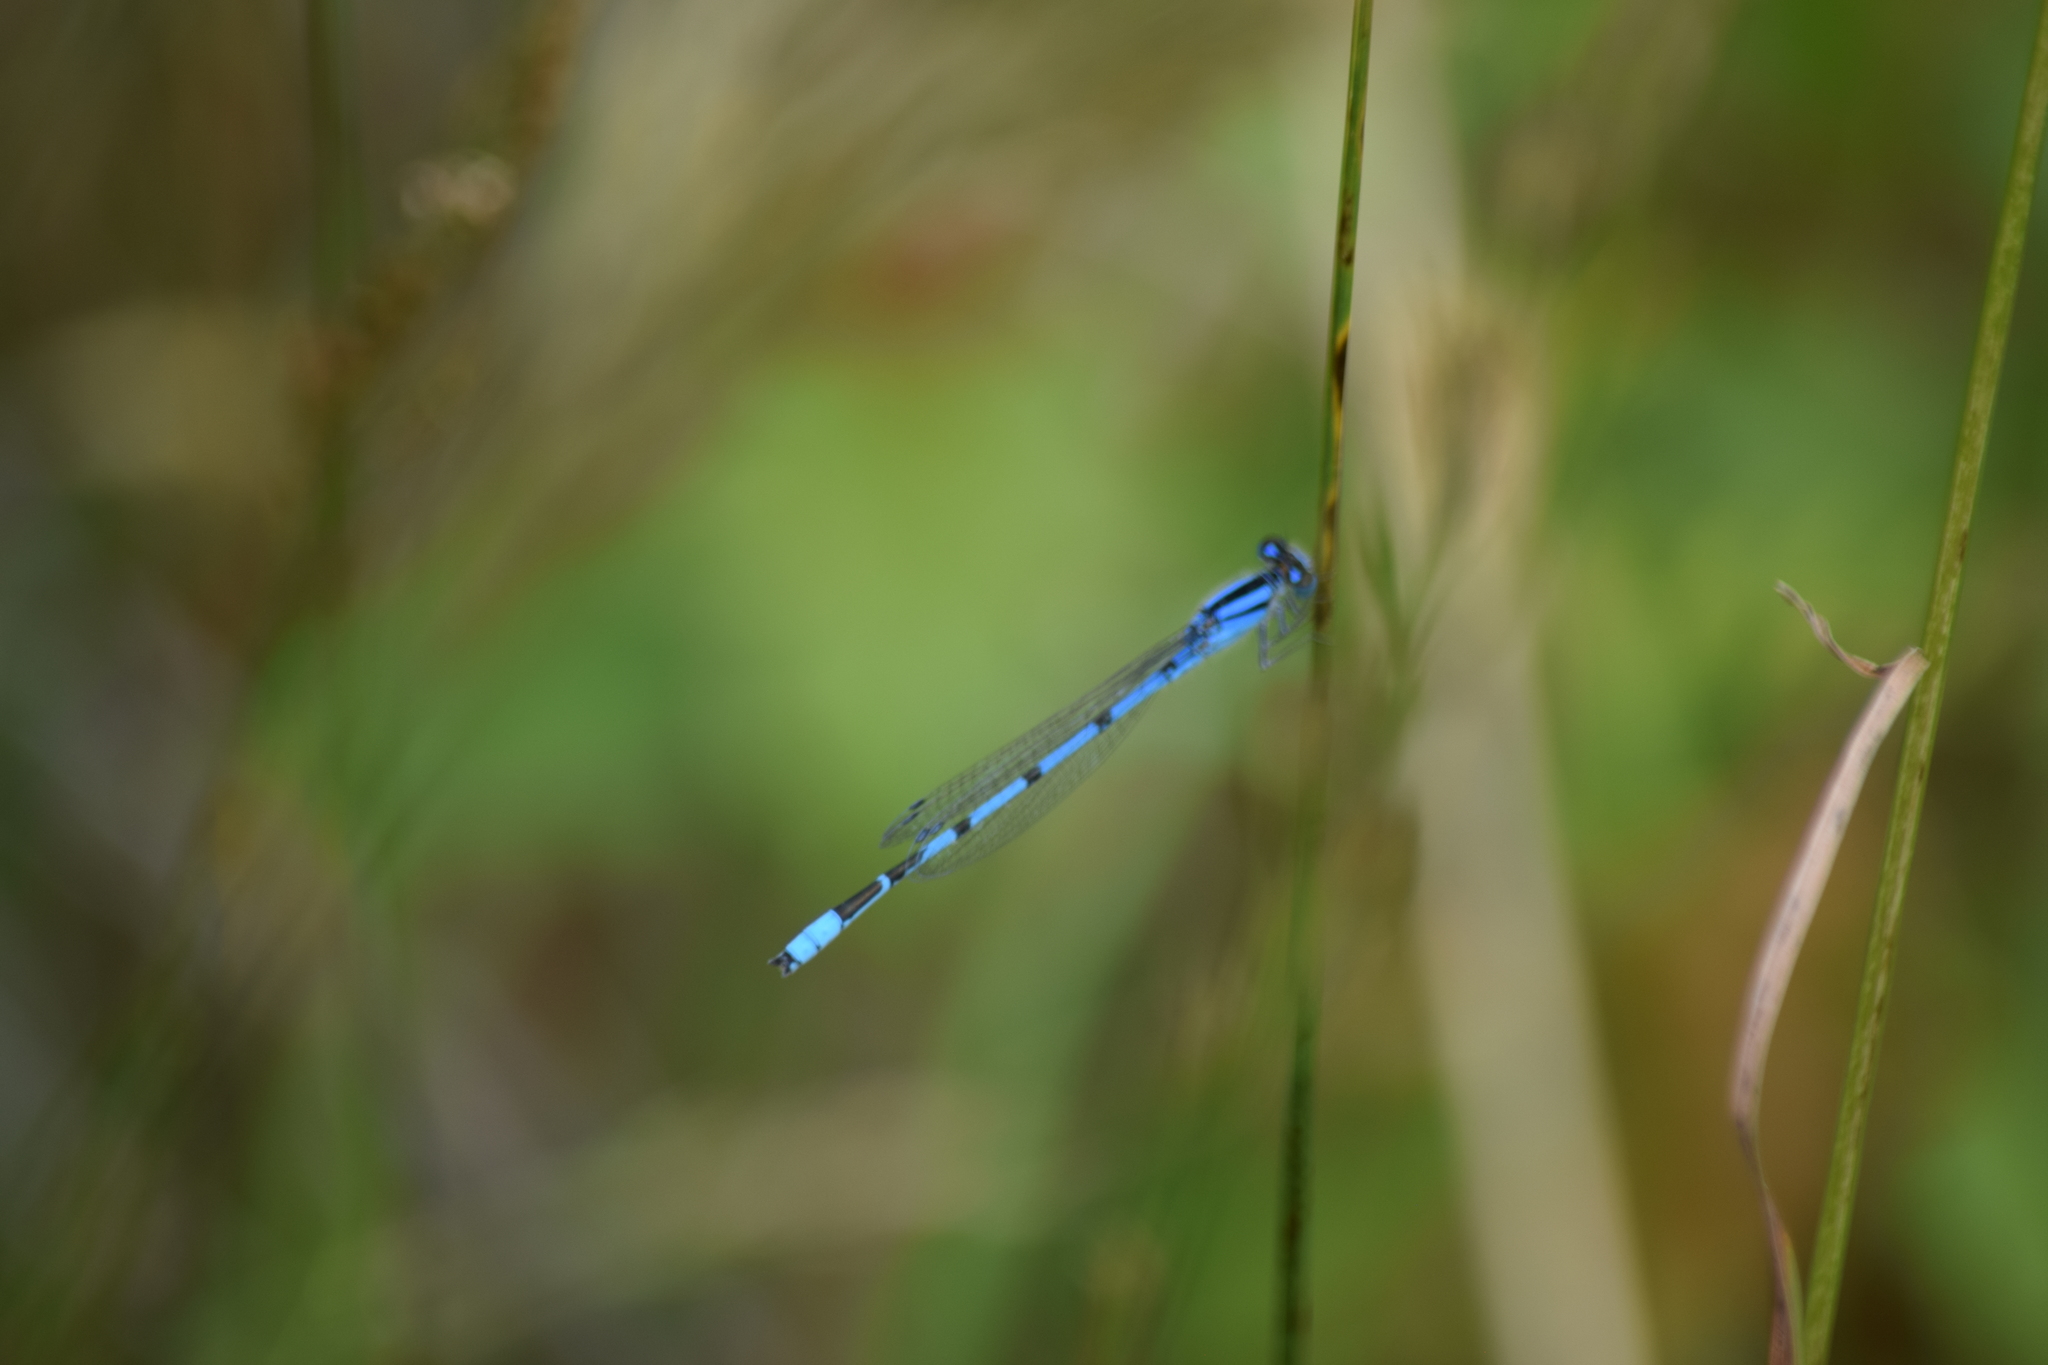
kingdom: Animalia
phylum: Arthropoda
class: Insecta
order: Odonata
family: Coenagrionidae
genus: Enallagma
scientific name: Enallagma civile
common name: Damselfly
